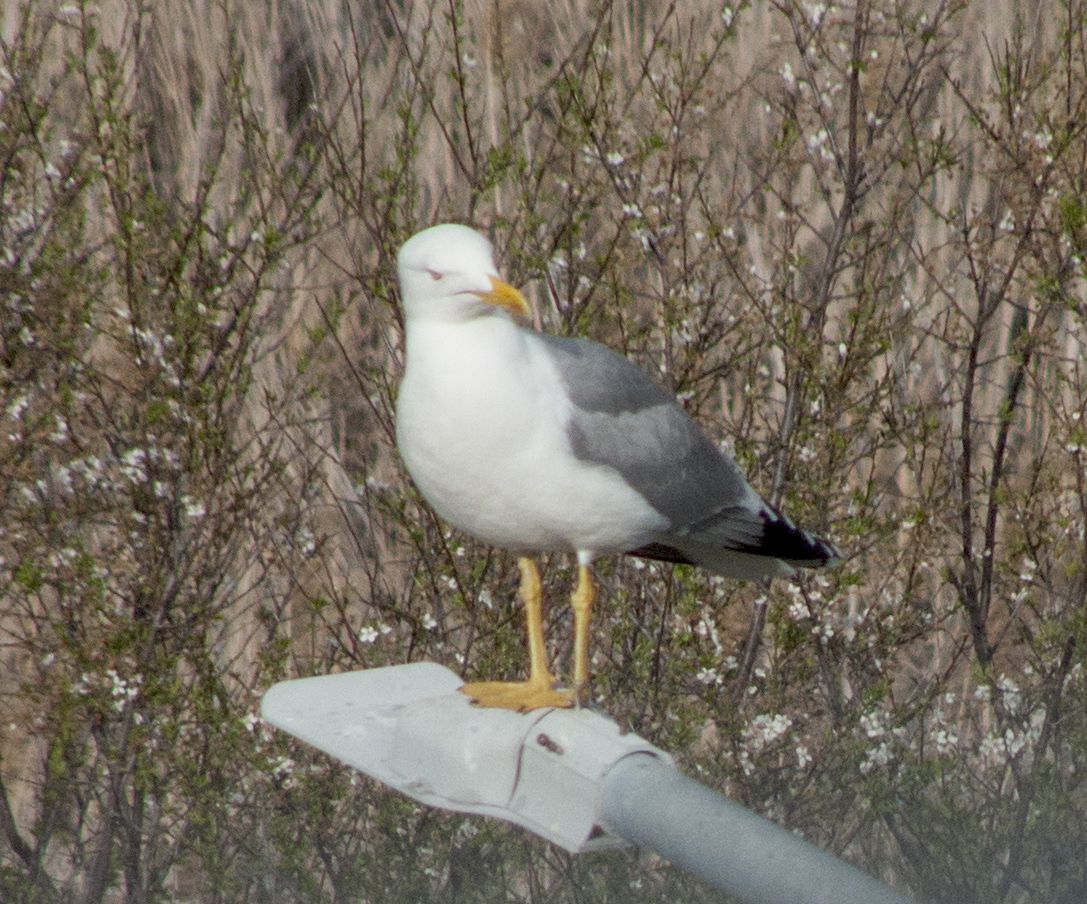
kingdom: Animalia
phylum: Chordata
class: Aves
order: Charadriiformes
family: Laridae
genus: Larus
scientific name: Larus michahellis
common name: Yellow-legged gull
